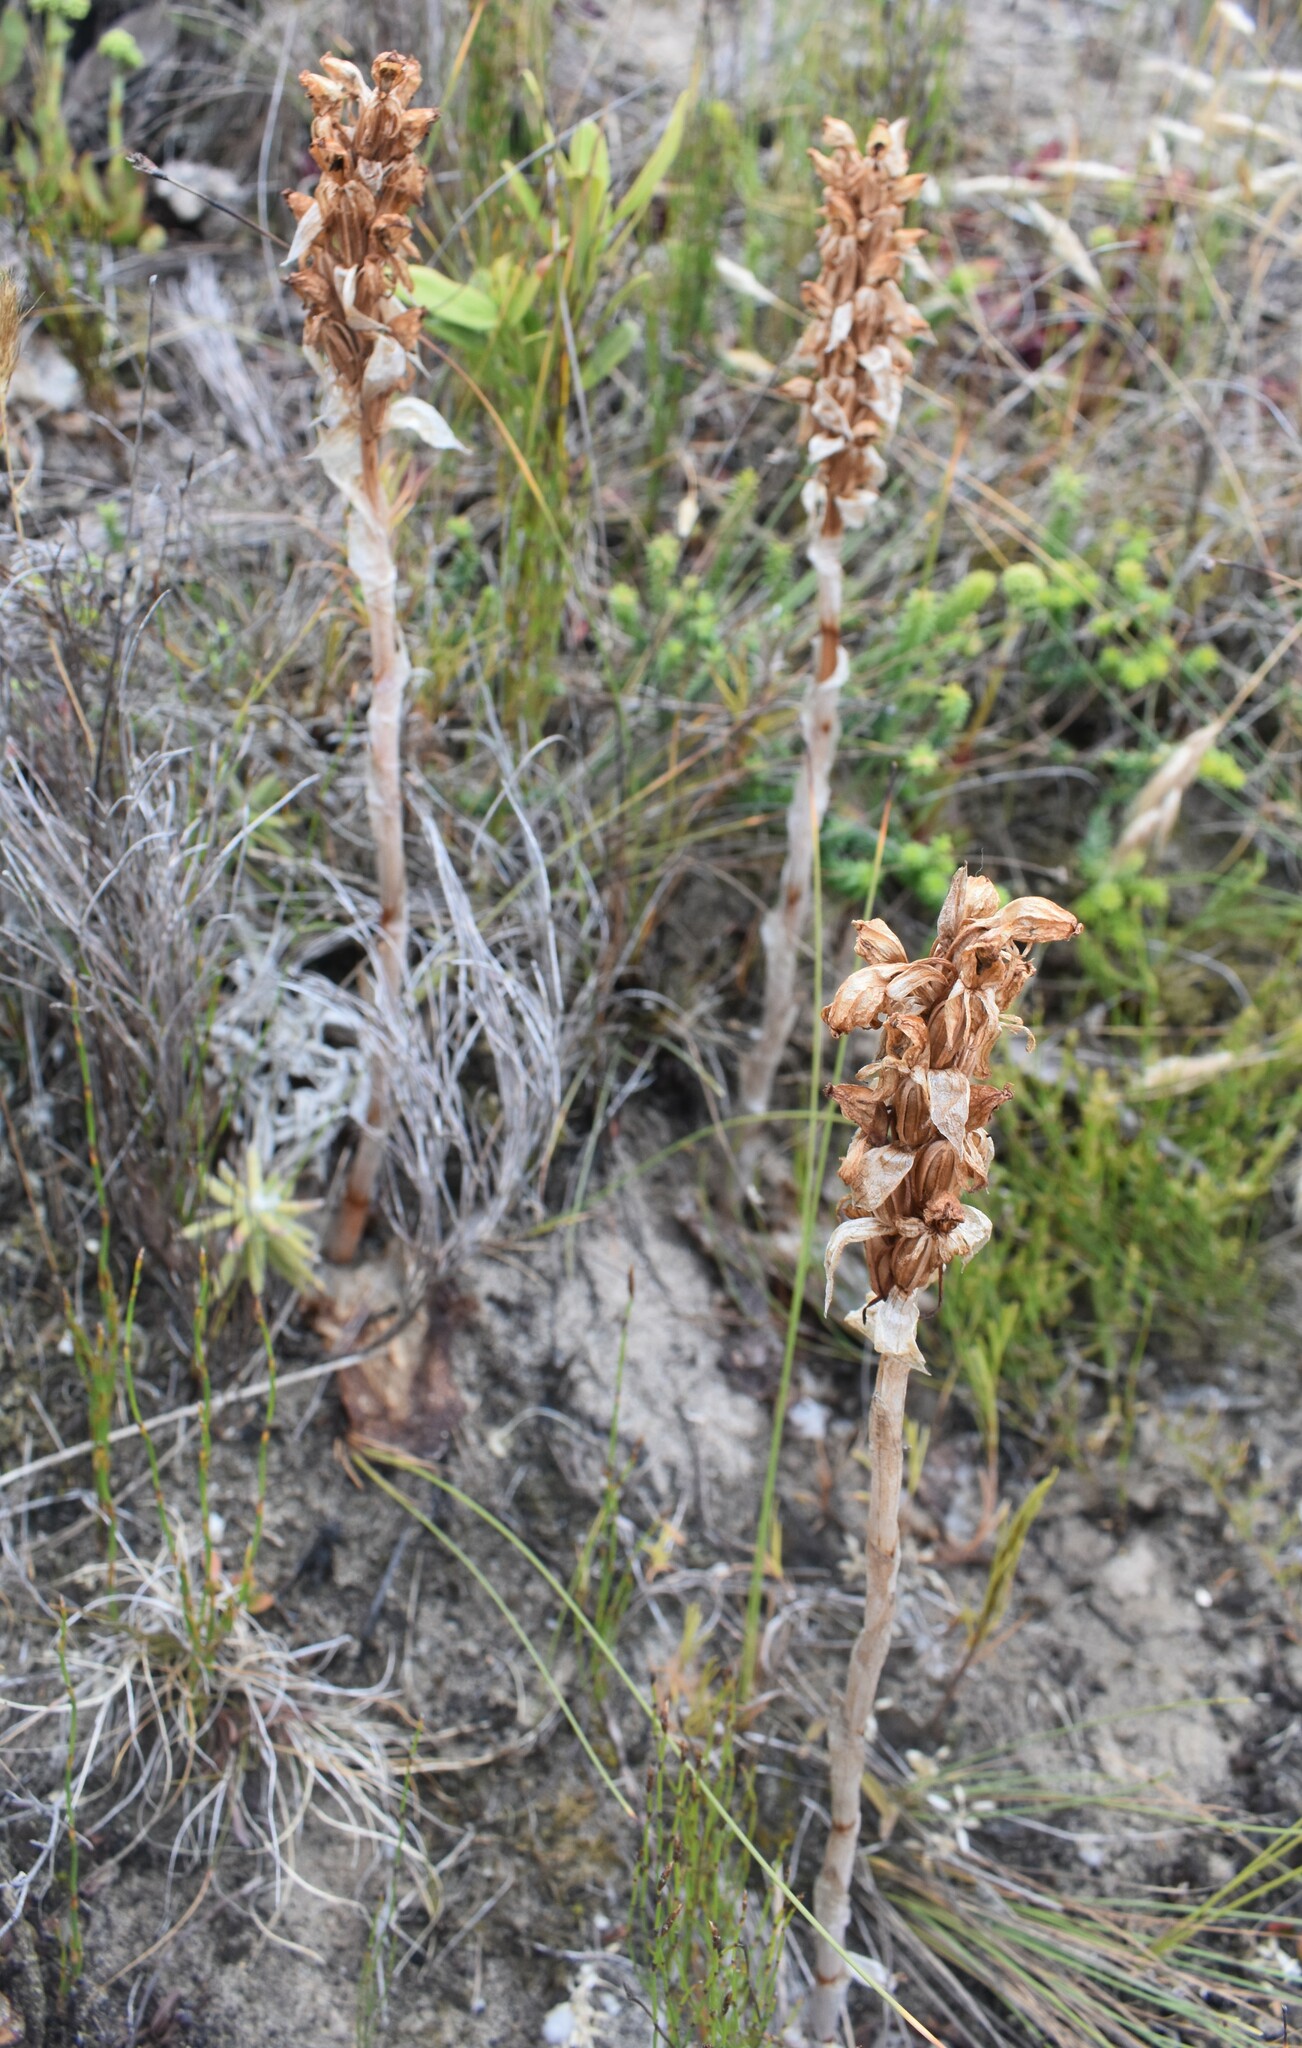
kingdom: Plantae
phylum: Tracheophyta
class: Liliopsida
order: Asparagales
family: Orchidaceae
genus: Satyrium
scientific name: Satyrium princeps
